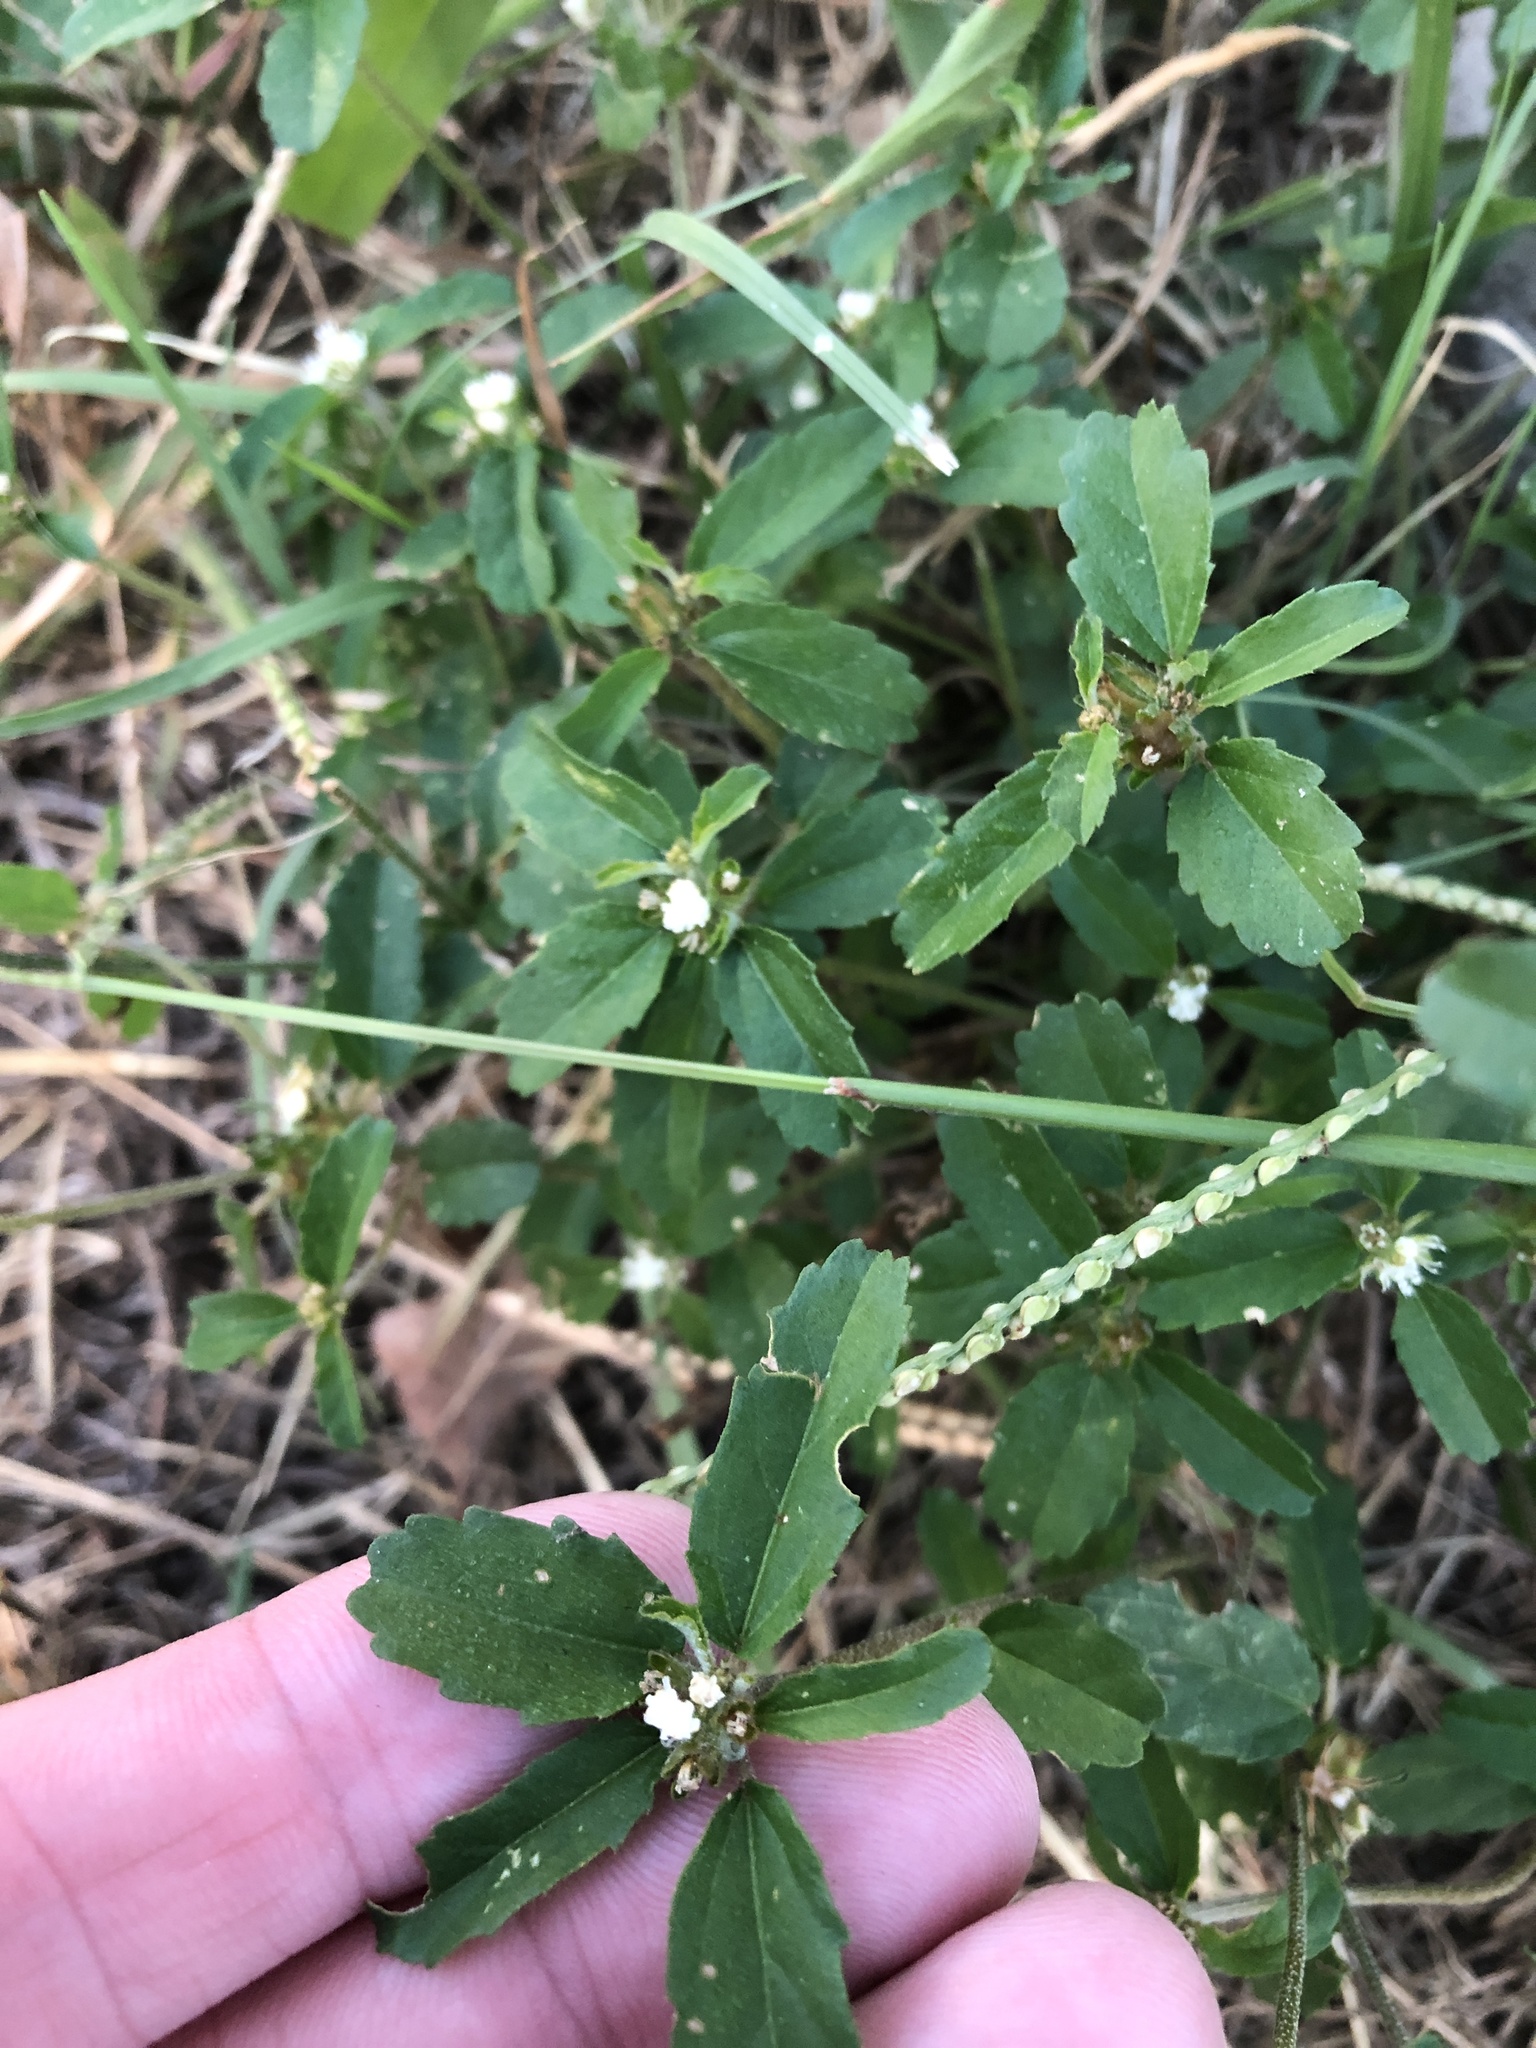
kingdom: Plantae
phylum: Tracheophyta
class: Magnoliopsida
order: Malpighiales
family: Euphorbiaceae
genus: Croton
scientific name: Croton glandulosus
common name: Tropic croton
